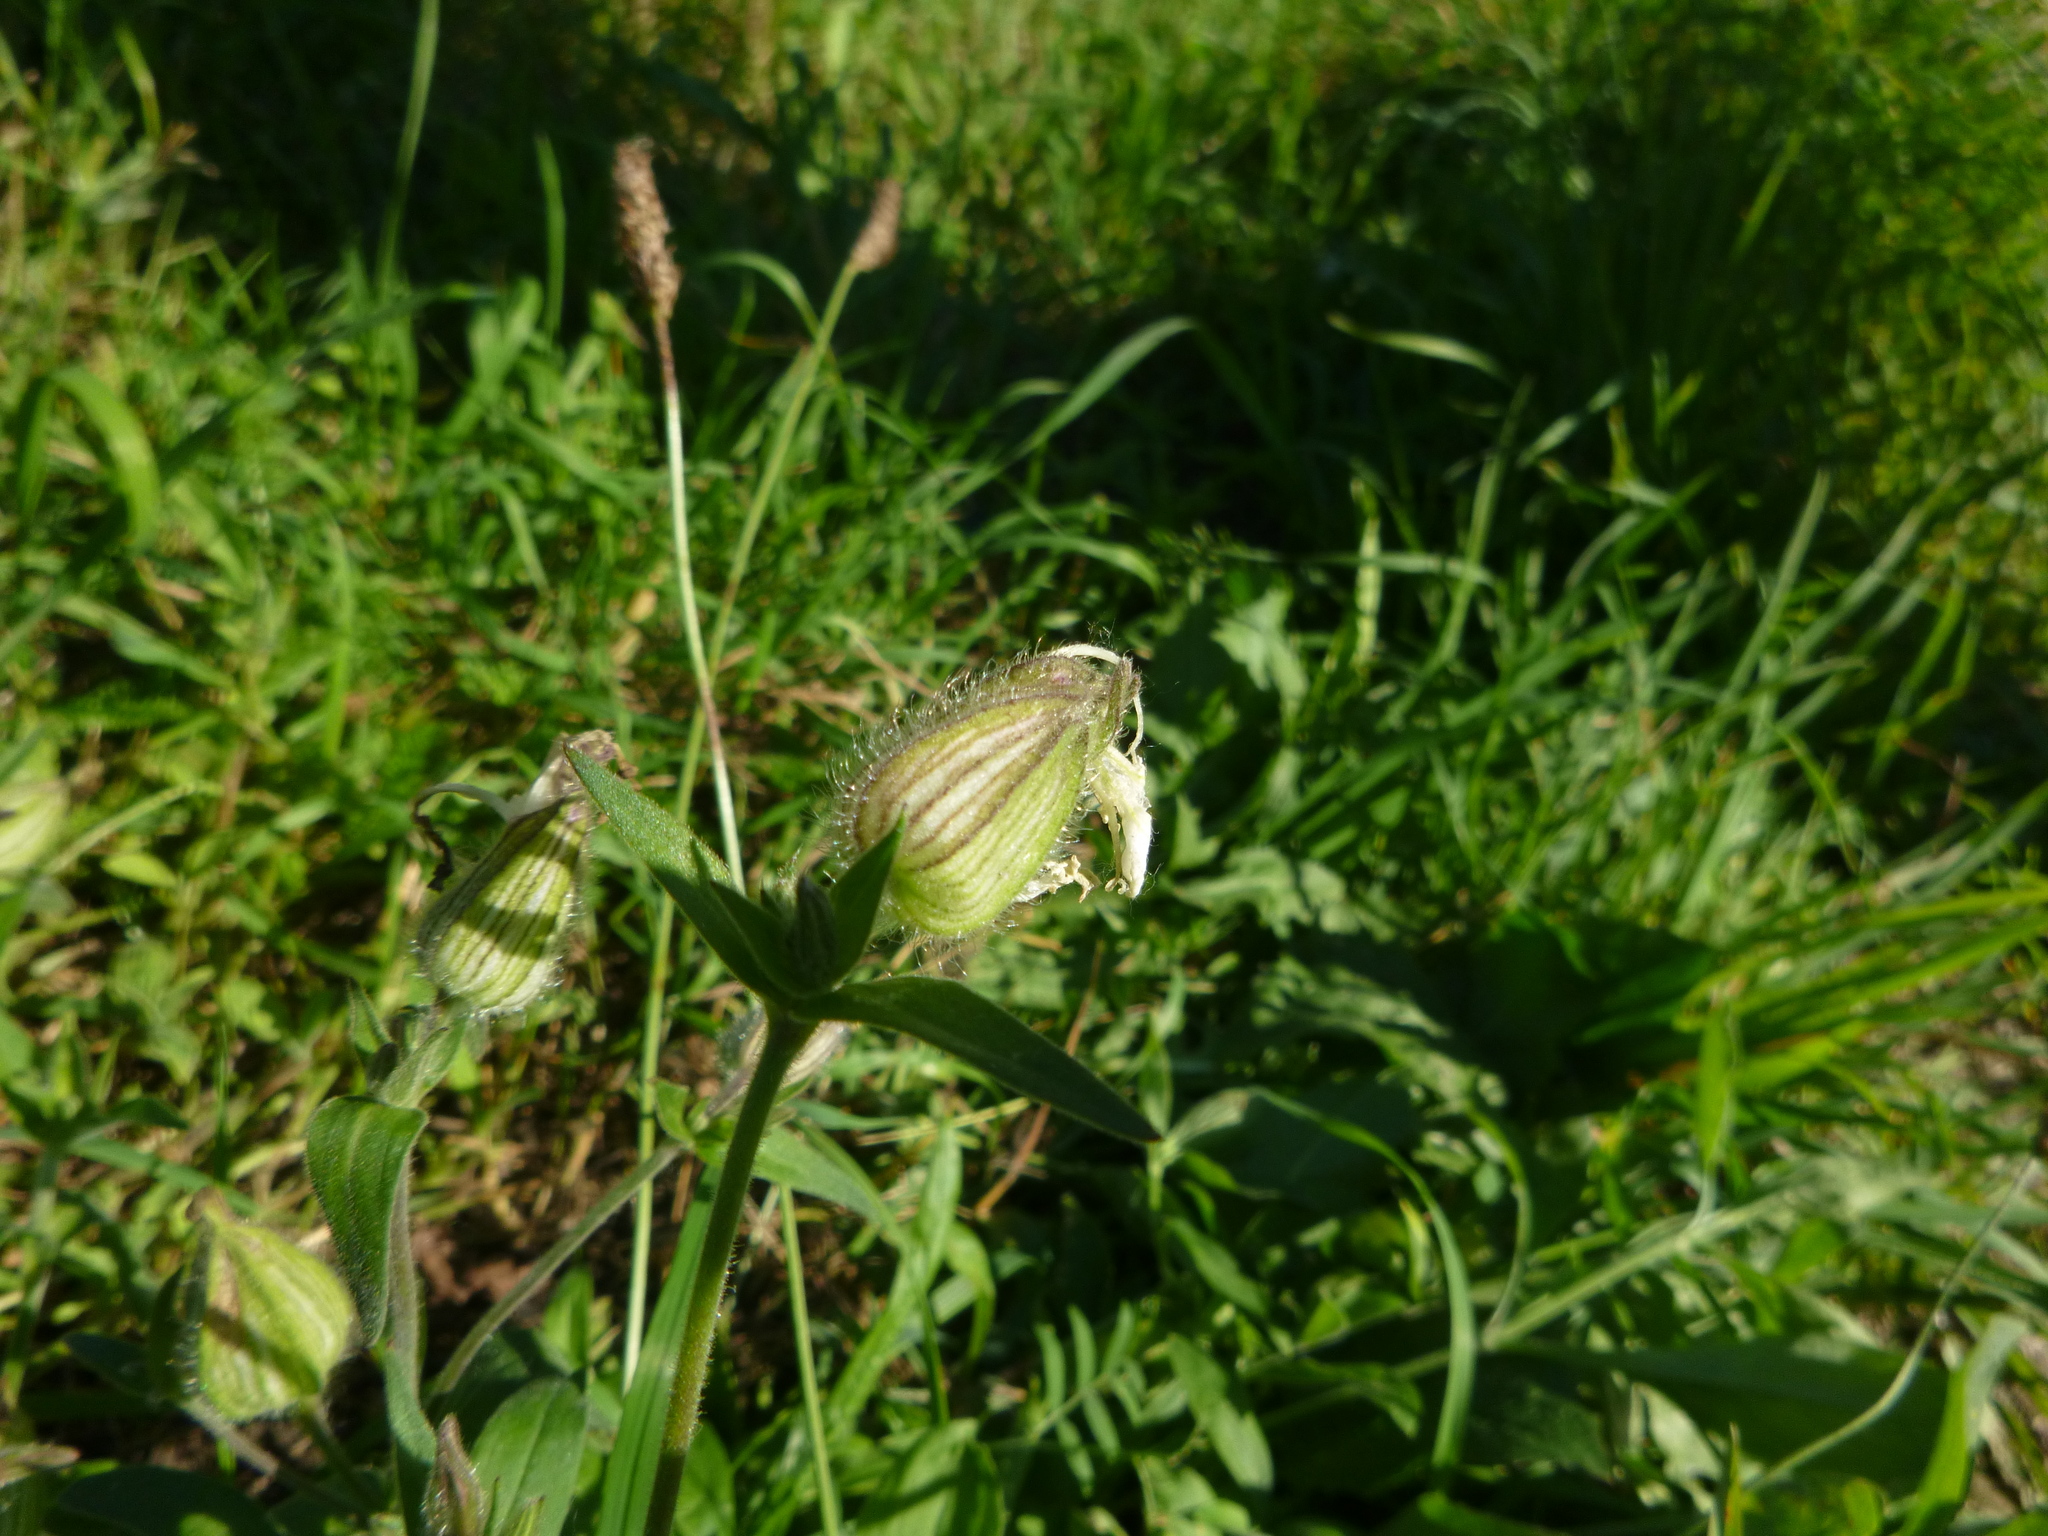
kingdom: Plantae
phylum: Tracheophyta
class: Magnoliopsida
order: Caryophyllales
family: Caryophyllaceae
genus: Silene
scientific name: Silene latifolia
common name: White campion
